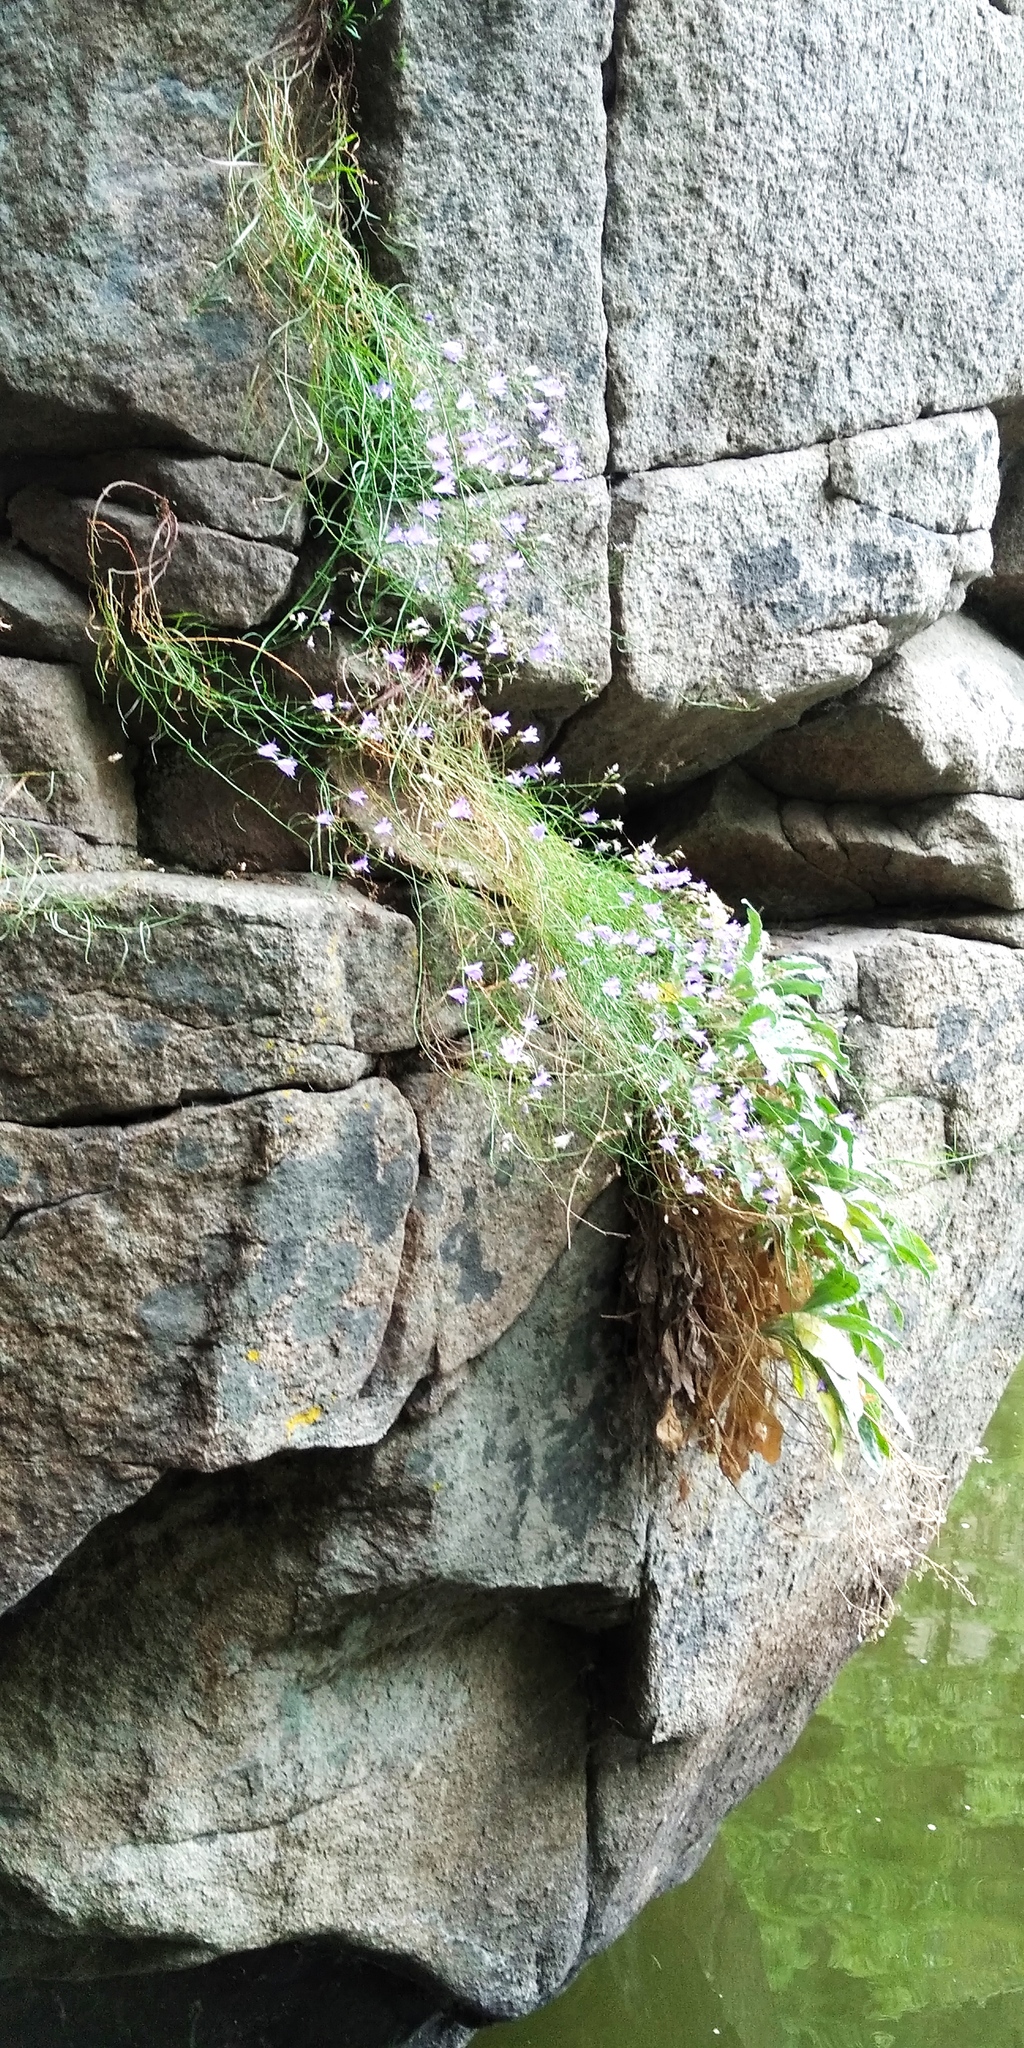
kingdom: Plantae
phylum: Tracheophyta
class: Magnoliopsida
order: Asterales
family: Campanulaceae
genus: Campanula
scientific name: Campanula rotundifolia
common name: Harebell
